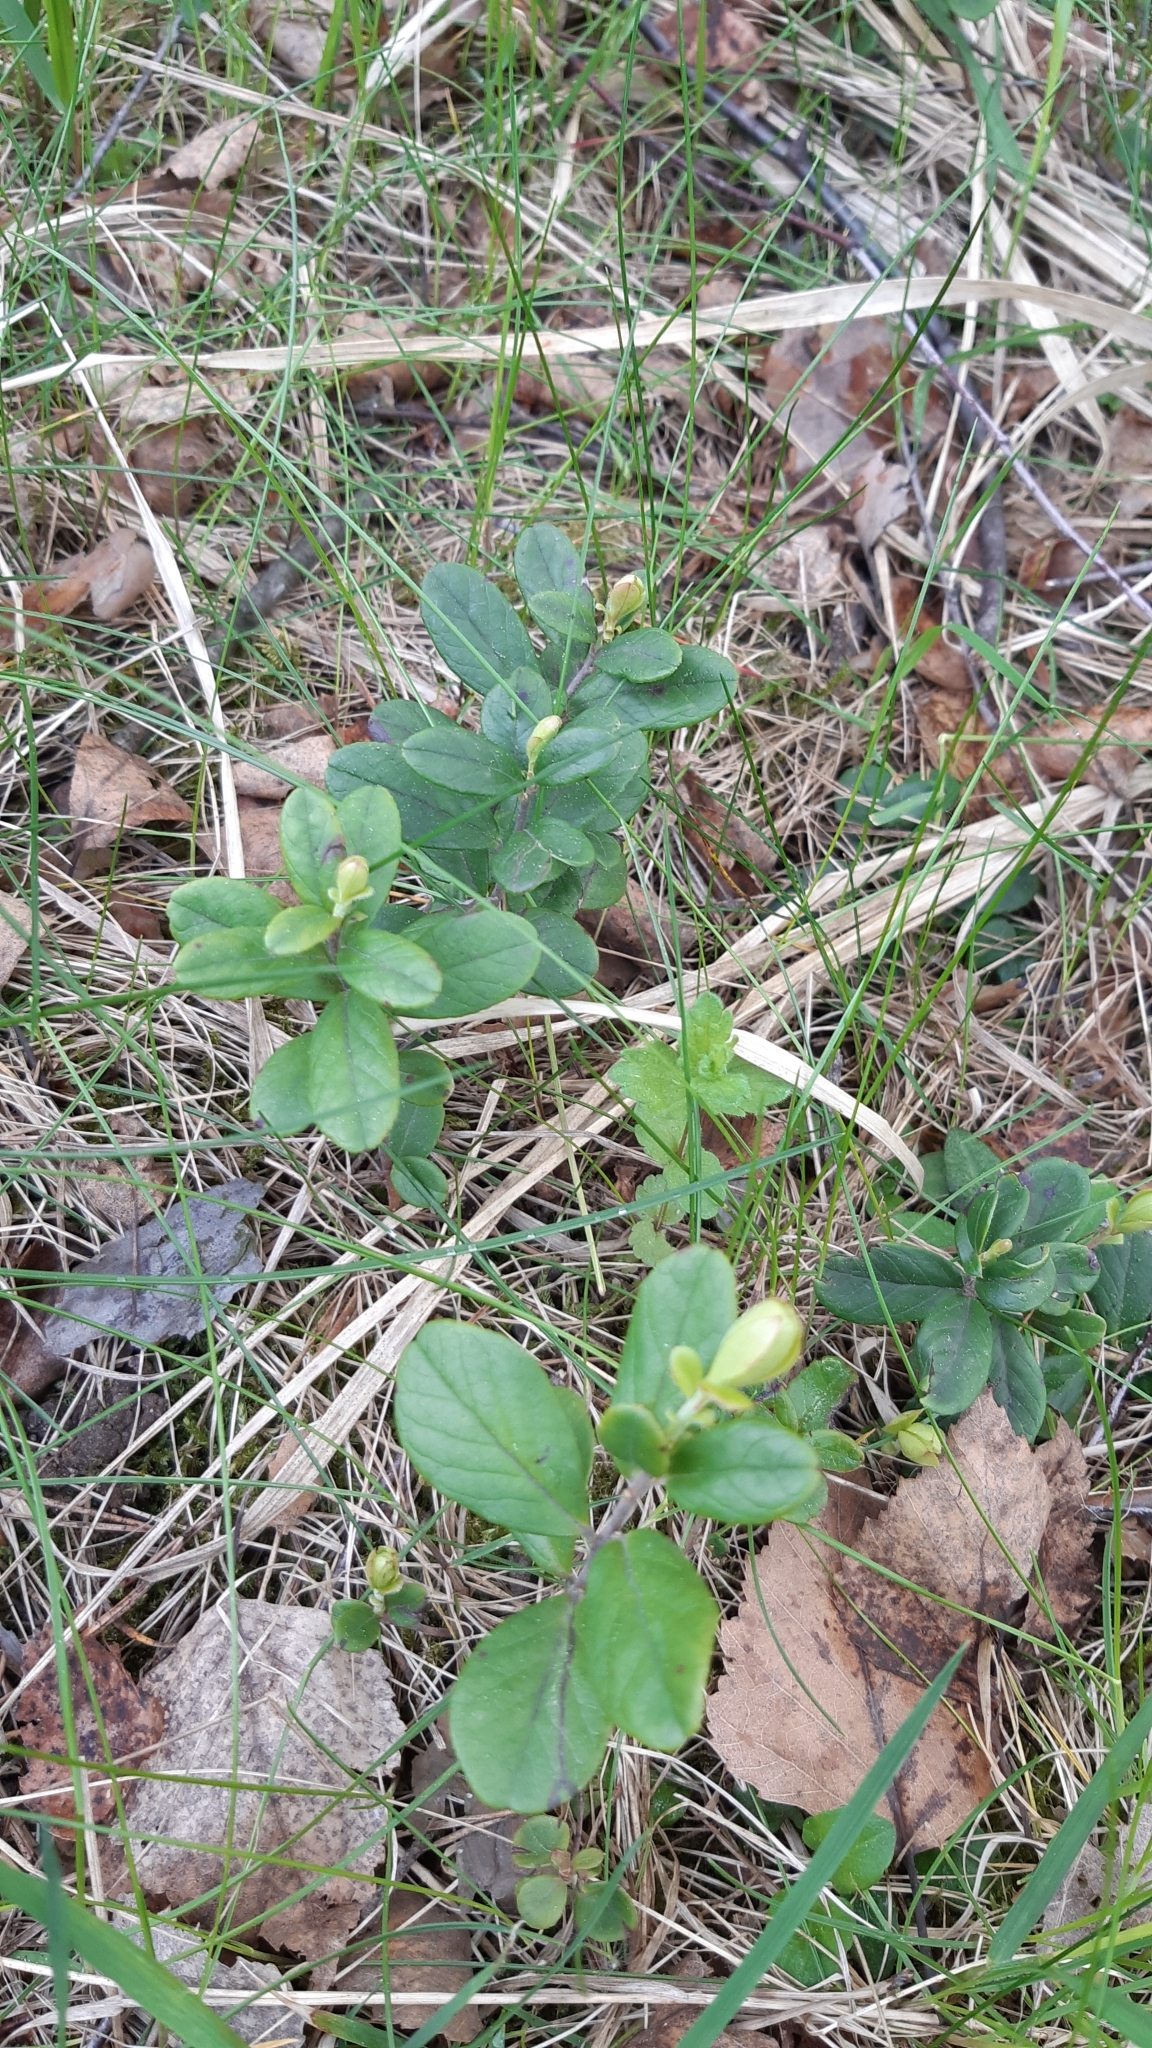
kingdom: Plantae
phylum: Tracheophyta
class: Magnoliopsida
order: Ericales
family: Ericaceae
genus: Vaccinium
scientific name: Vaccinium vitis-idaea
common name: Cowberry
